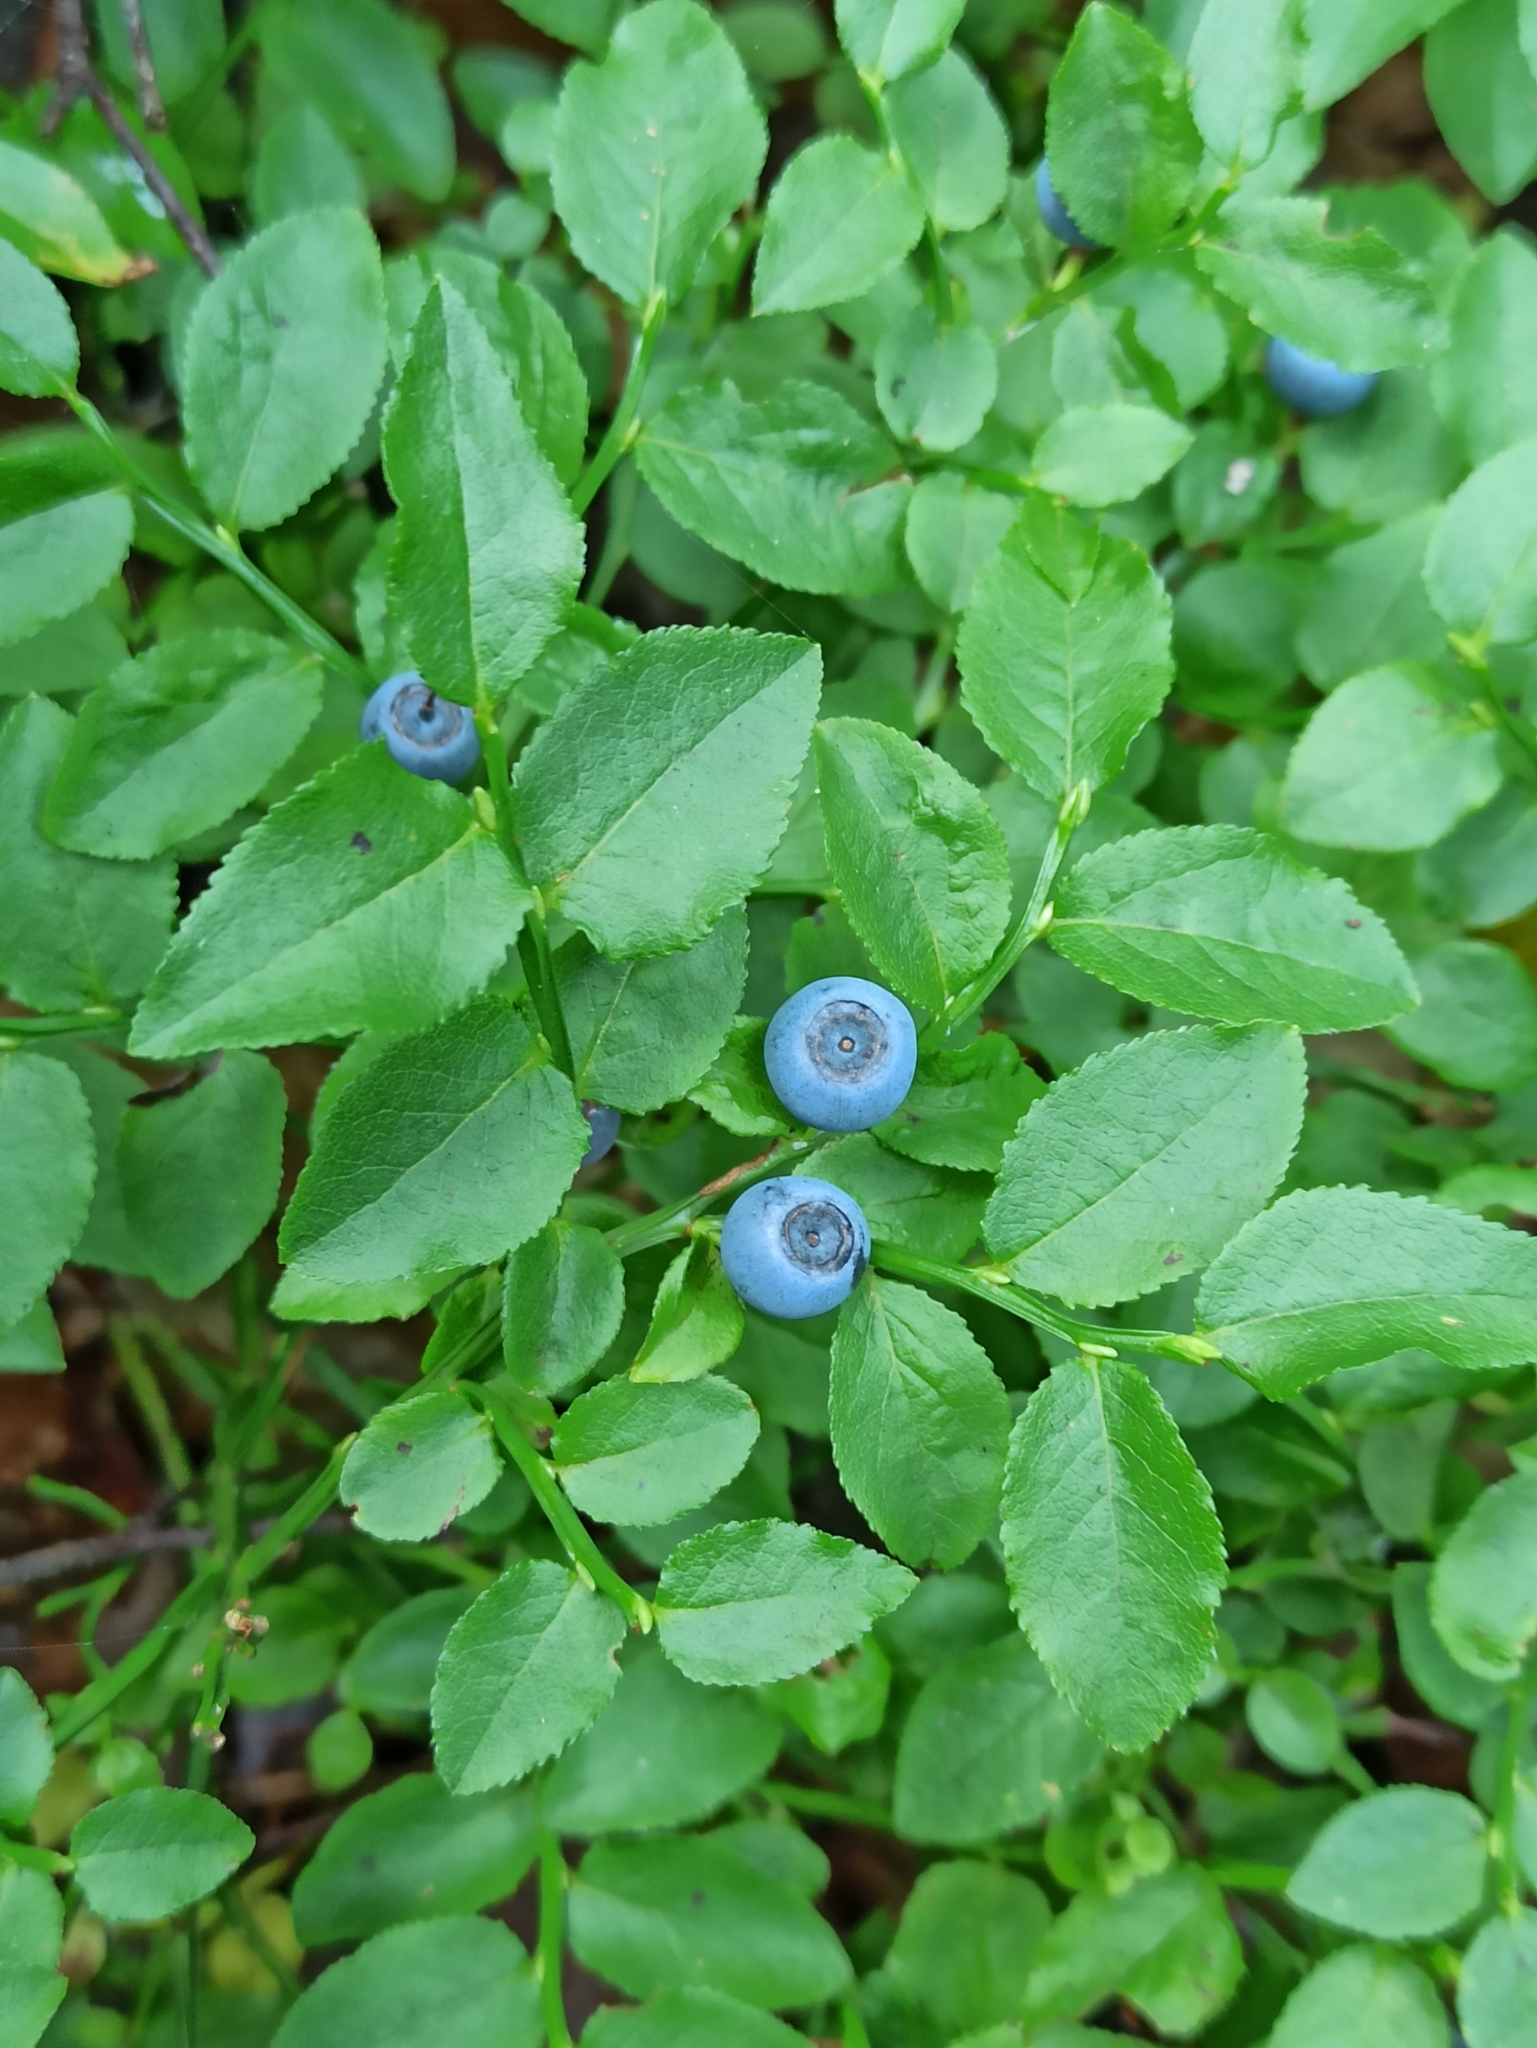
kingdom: Plantae
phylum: Tracheophyta
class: Magnoliopsida
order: Ericales
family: Ericaceae
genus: Vaccinium
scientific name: Vaccinium myrtillus
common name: Bilberry
